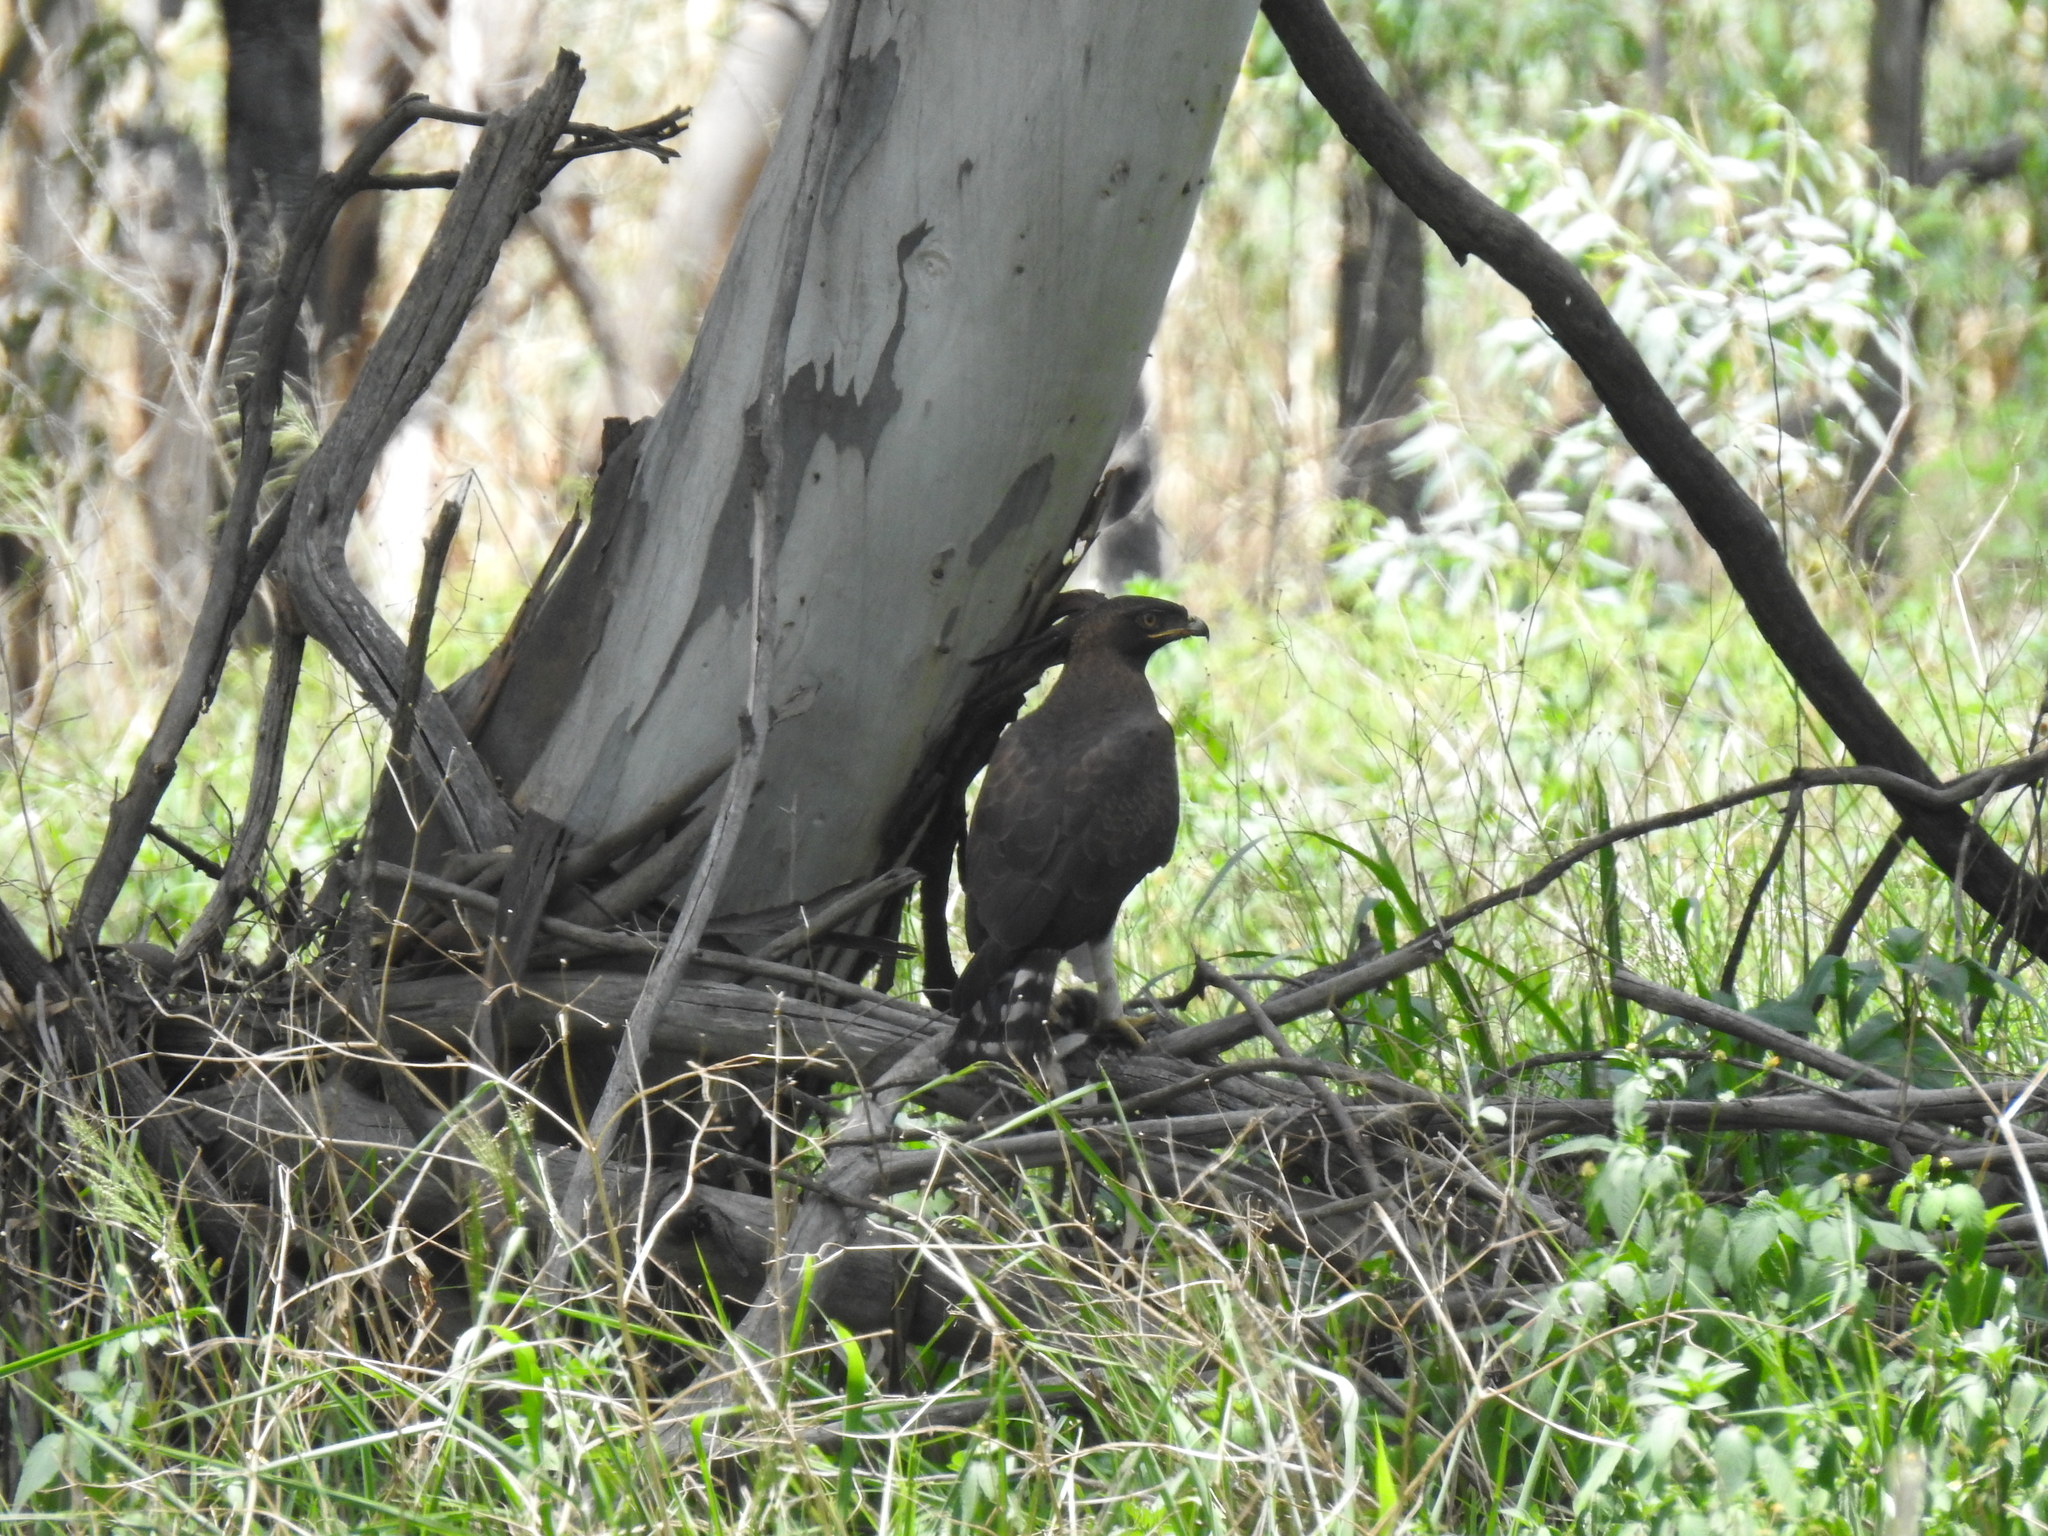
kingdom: Animalia
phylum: Chordata
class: Aves
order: Accipitriformes
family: Accipitridae
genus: Lophaetus
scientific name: Lophaetus occipitalis
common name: Long-crested eagle
